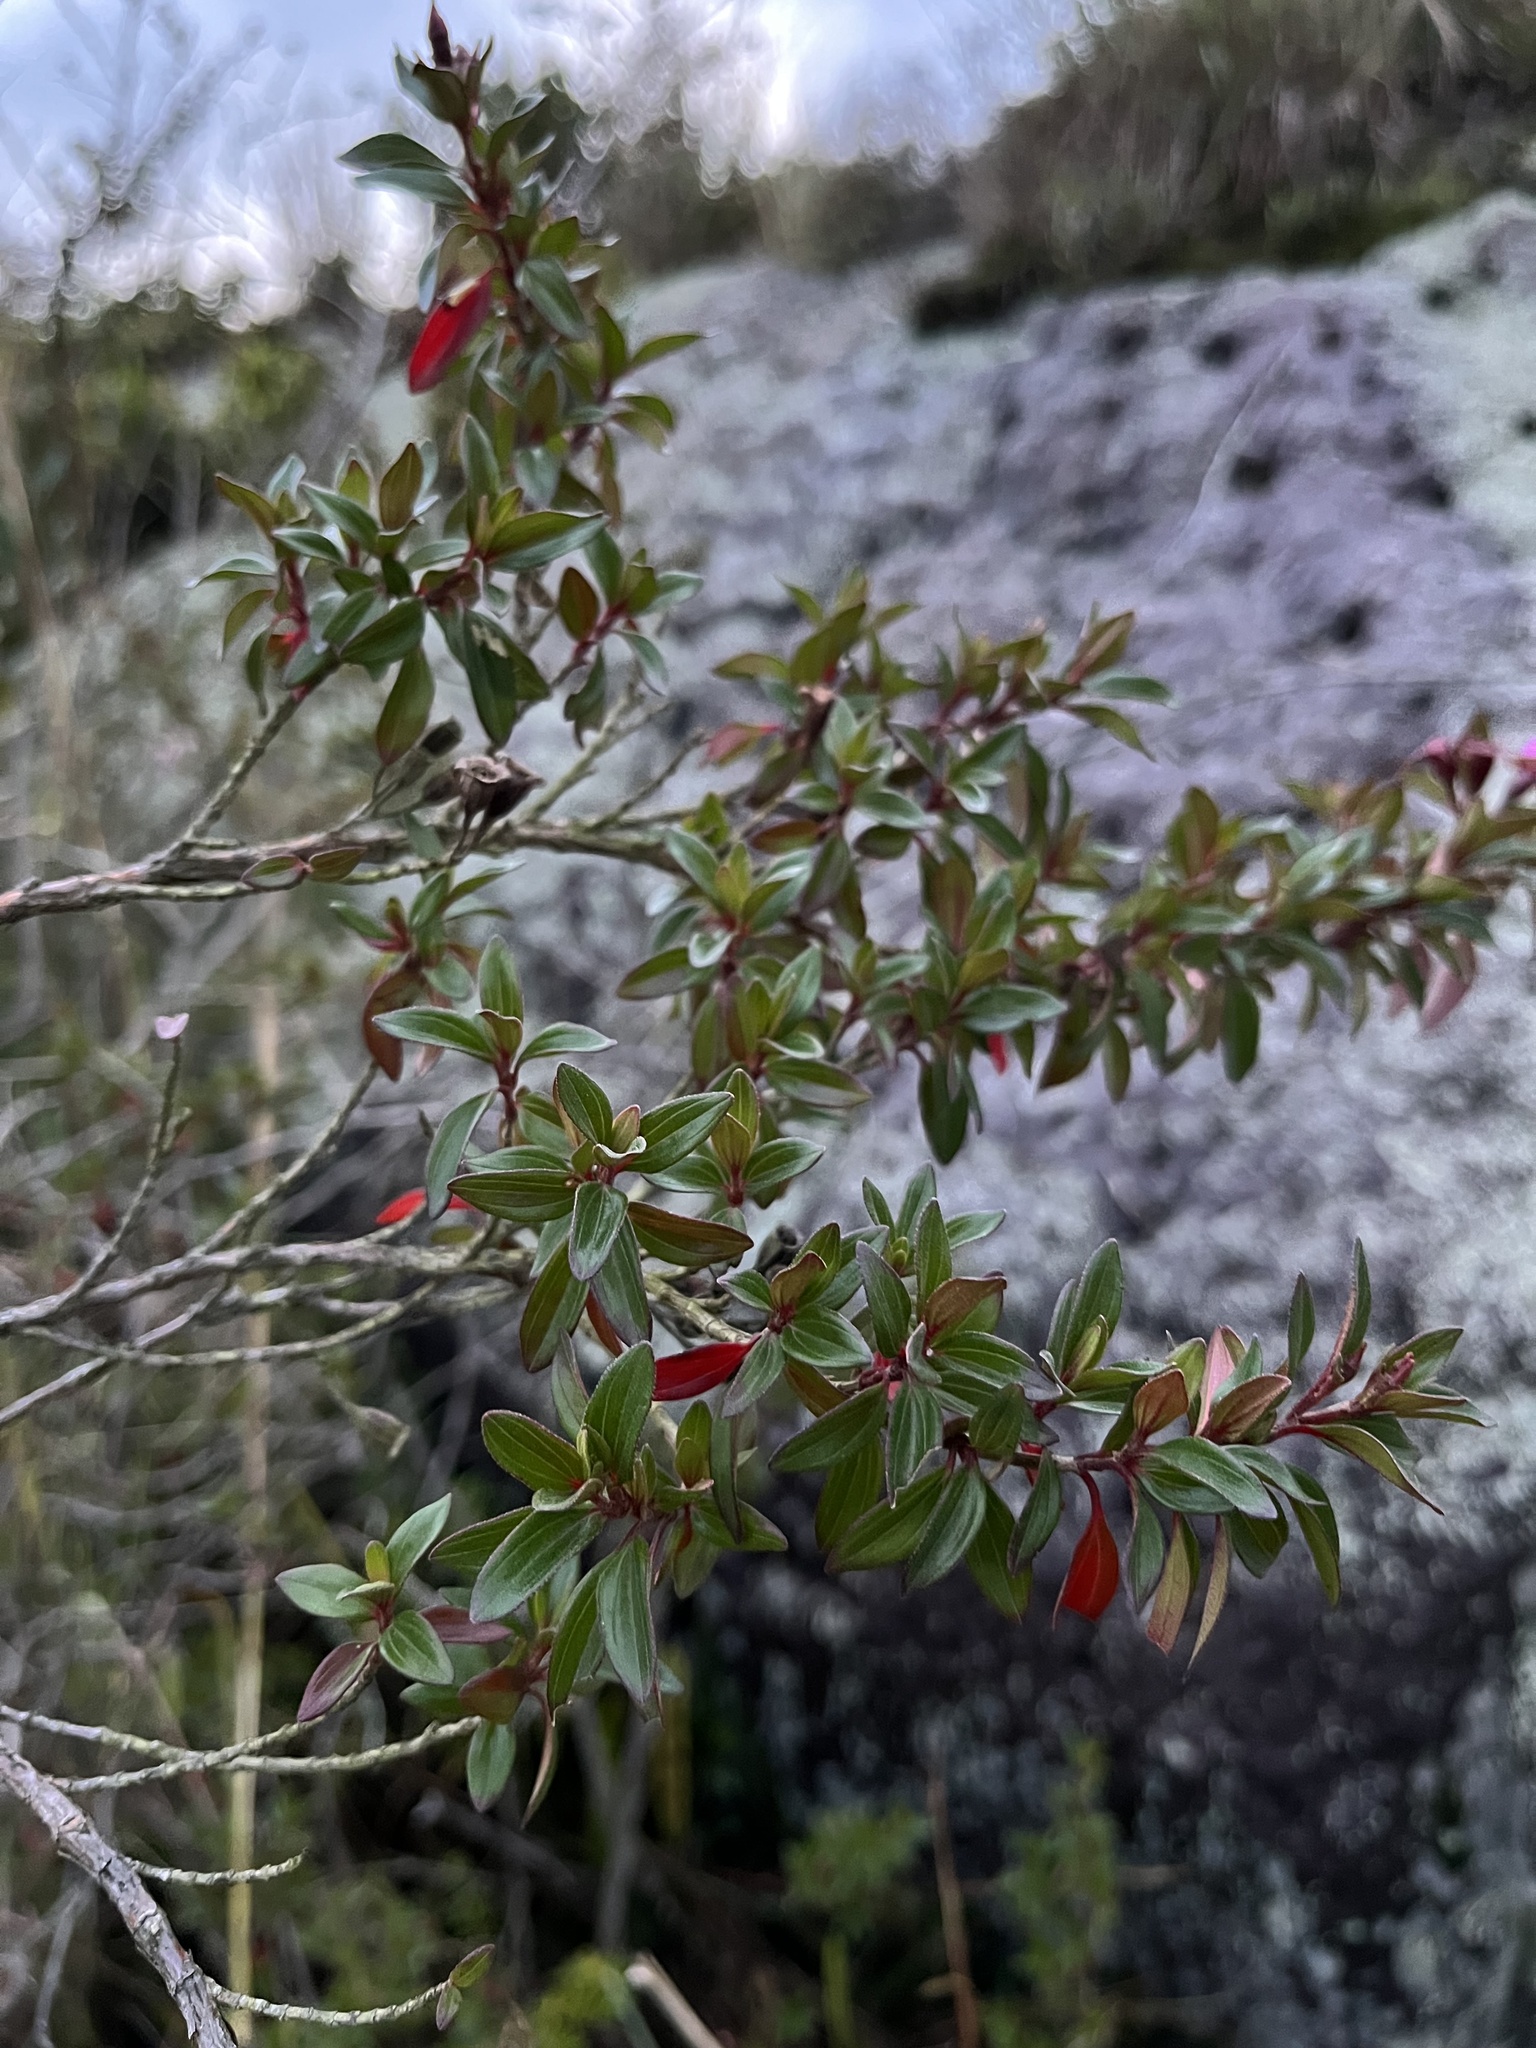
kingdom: Plantae
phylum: Tracheophyta
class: Magnoliopsida
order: Myrtales
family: Melastomataceae
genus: Monochaetum
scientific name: Monochaetum myrtoideum
